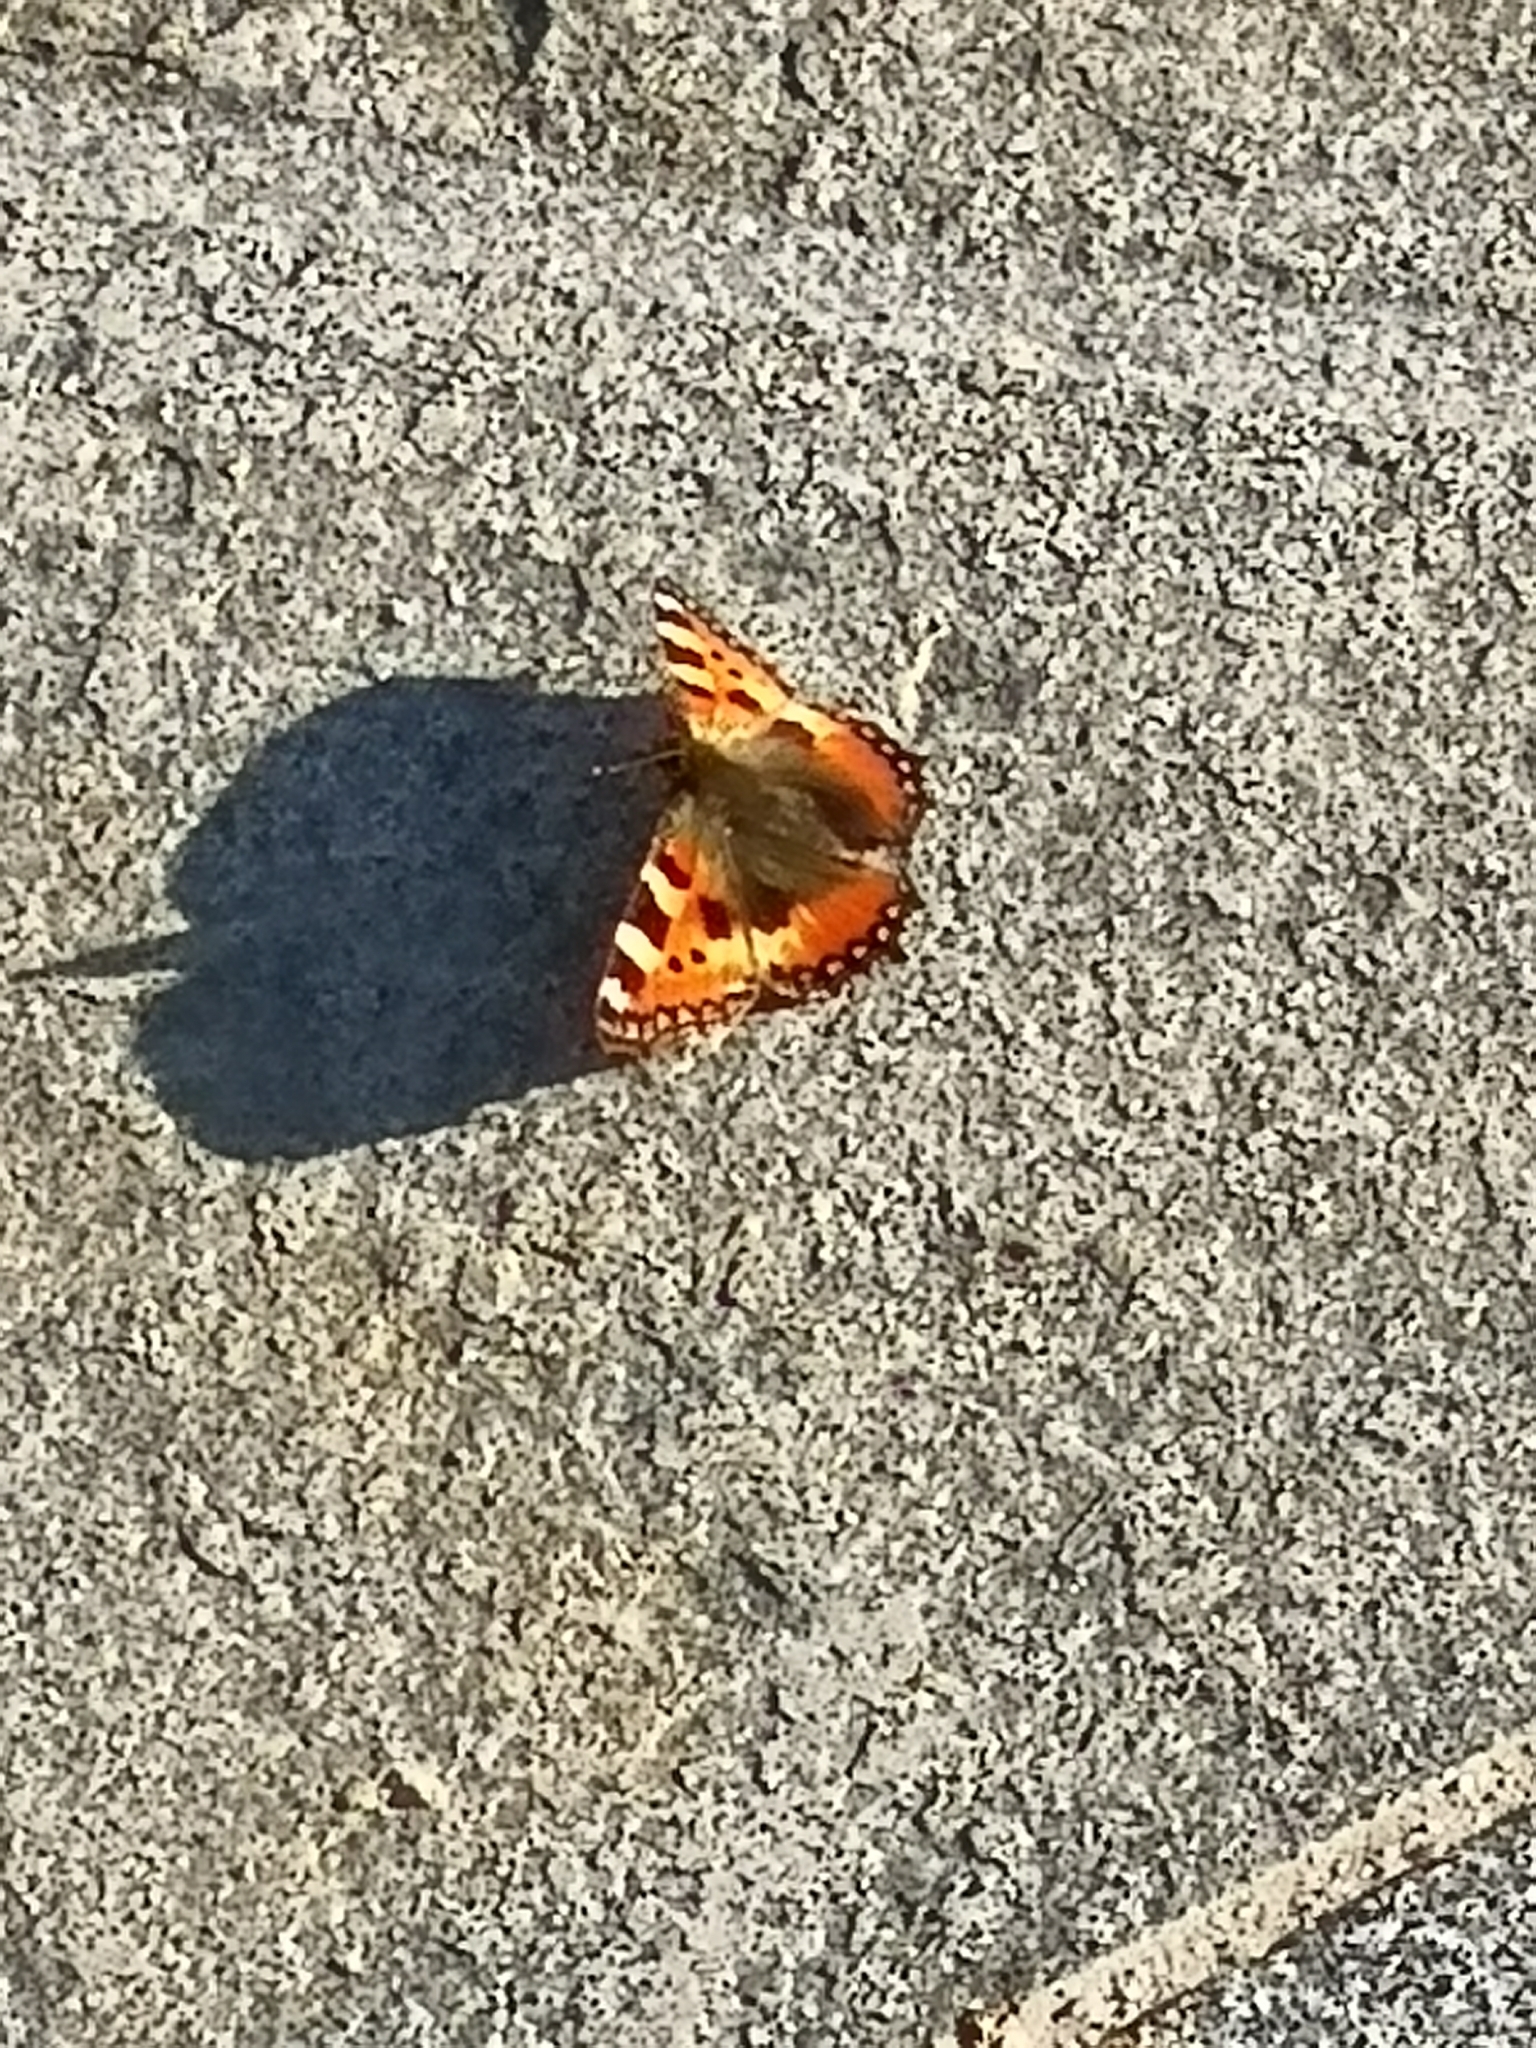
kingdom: Animalia
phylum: Arthropoda
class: Insecta
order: Lepidoptera
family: Nymphalidae
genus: Aglais
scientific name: Aglais urticae
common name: Small tortoiseshell
